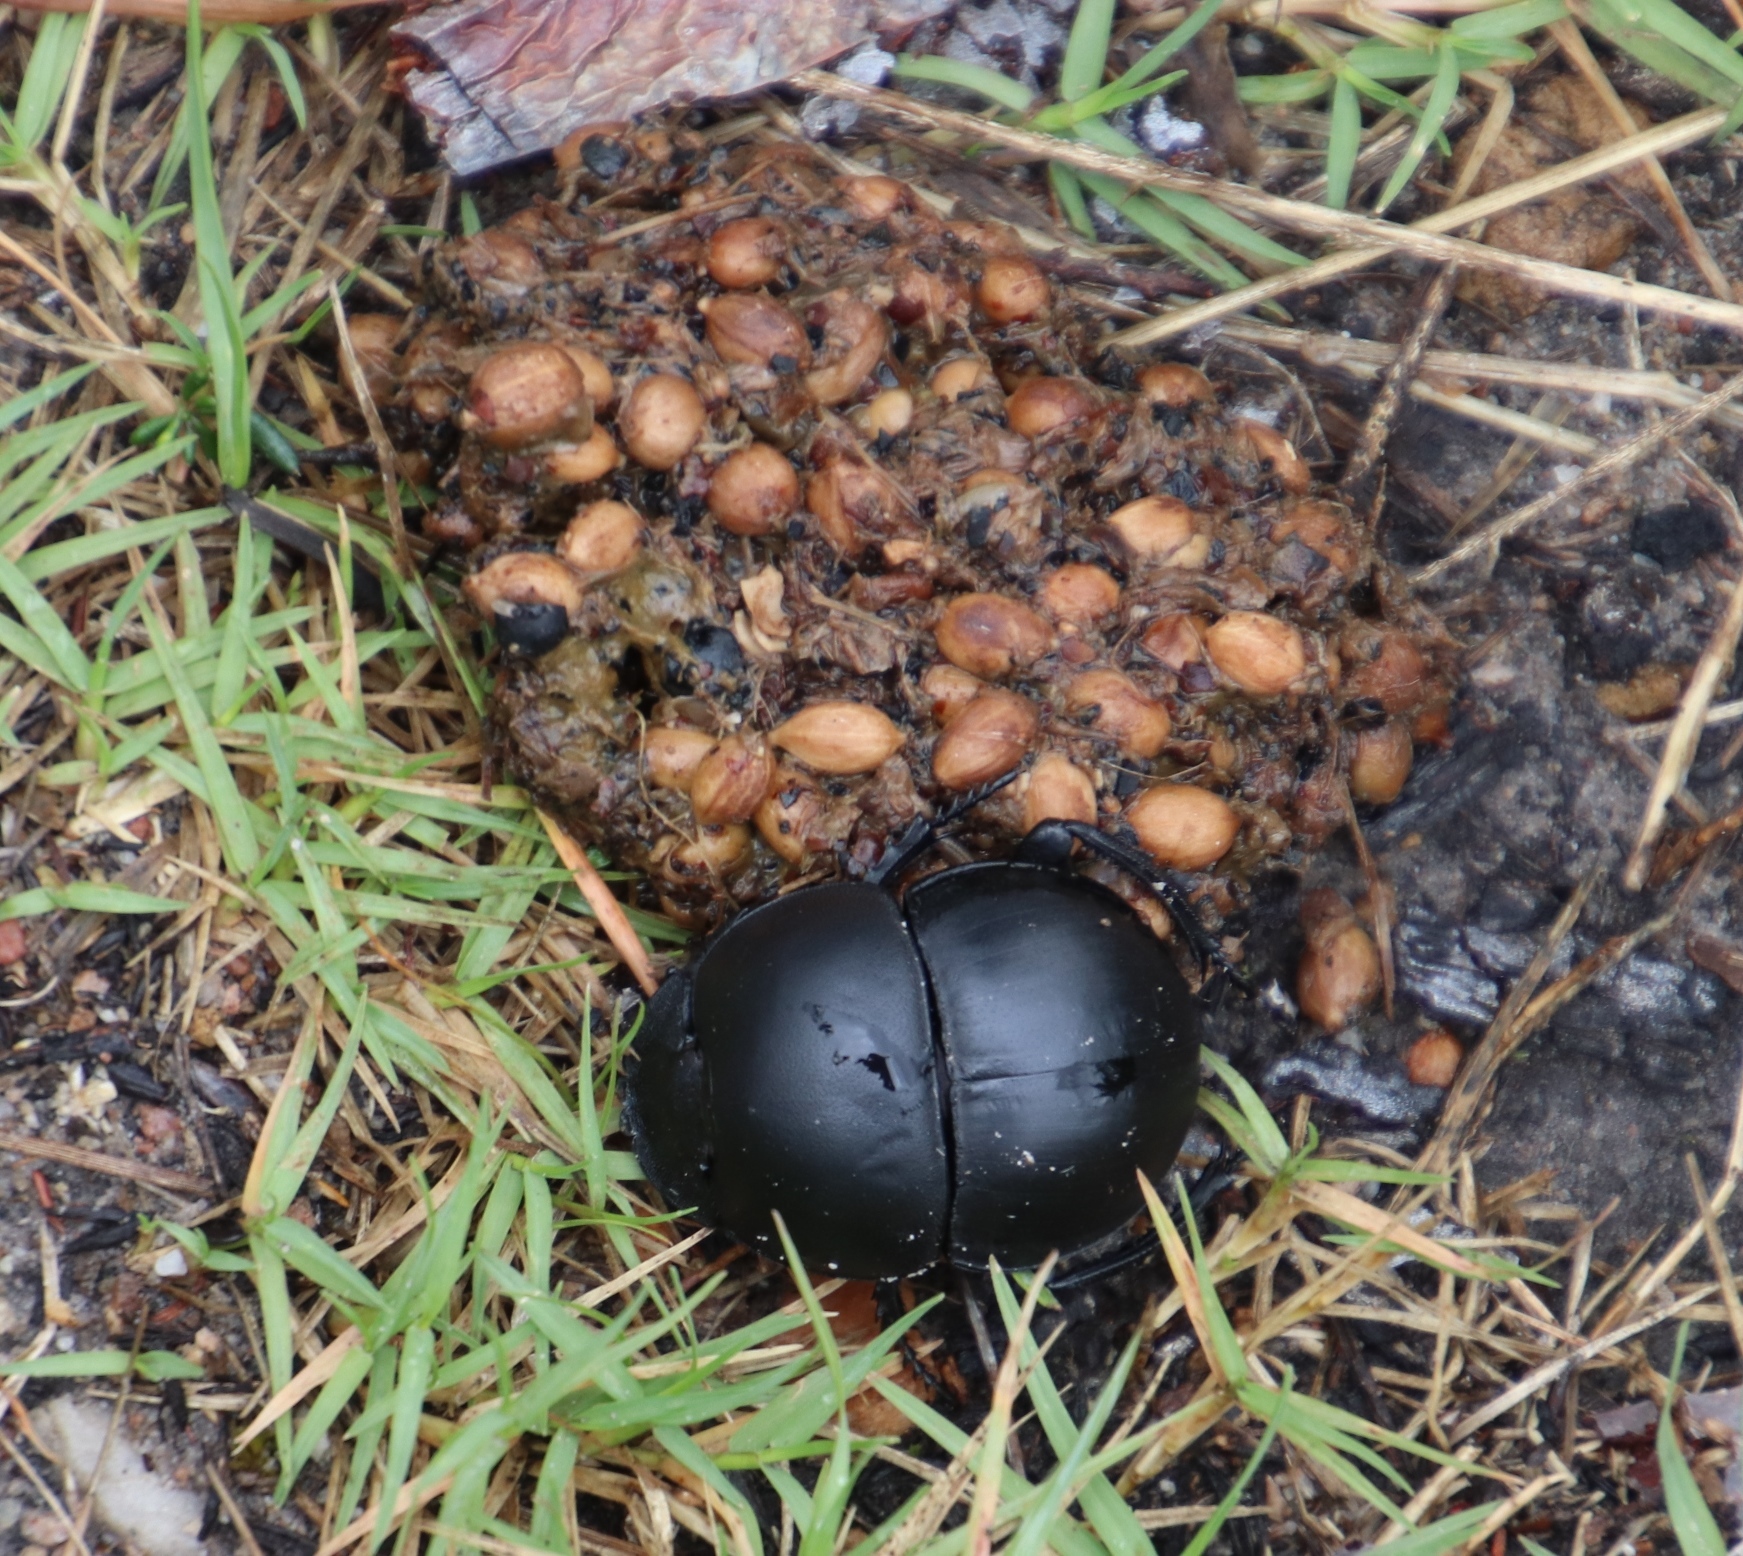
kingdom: Animalia
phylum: Chordata
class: Mammalia
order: Primates
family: Cercopithecidae
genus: Papio
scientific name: Papio ursinus
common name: Chacma baboon
